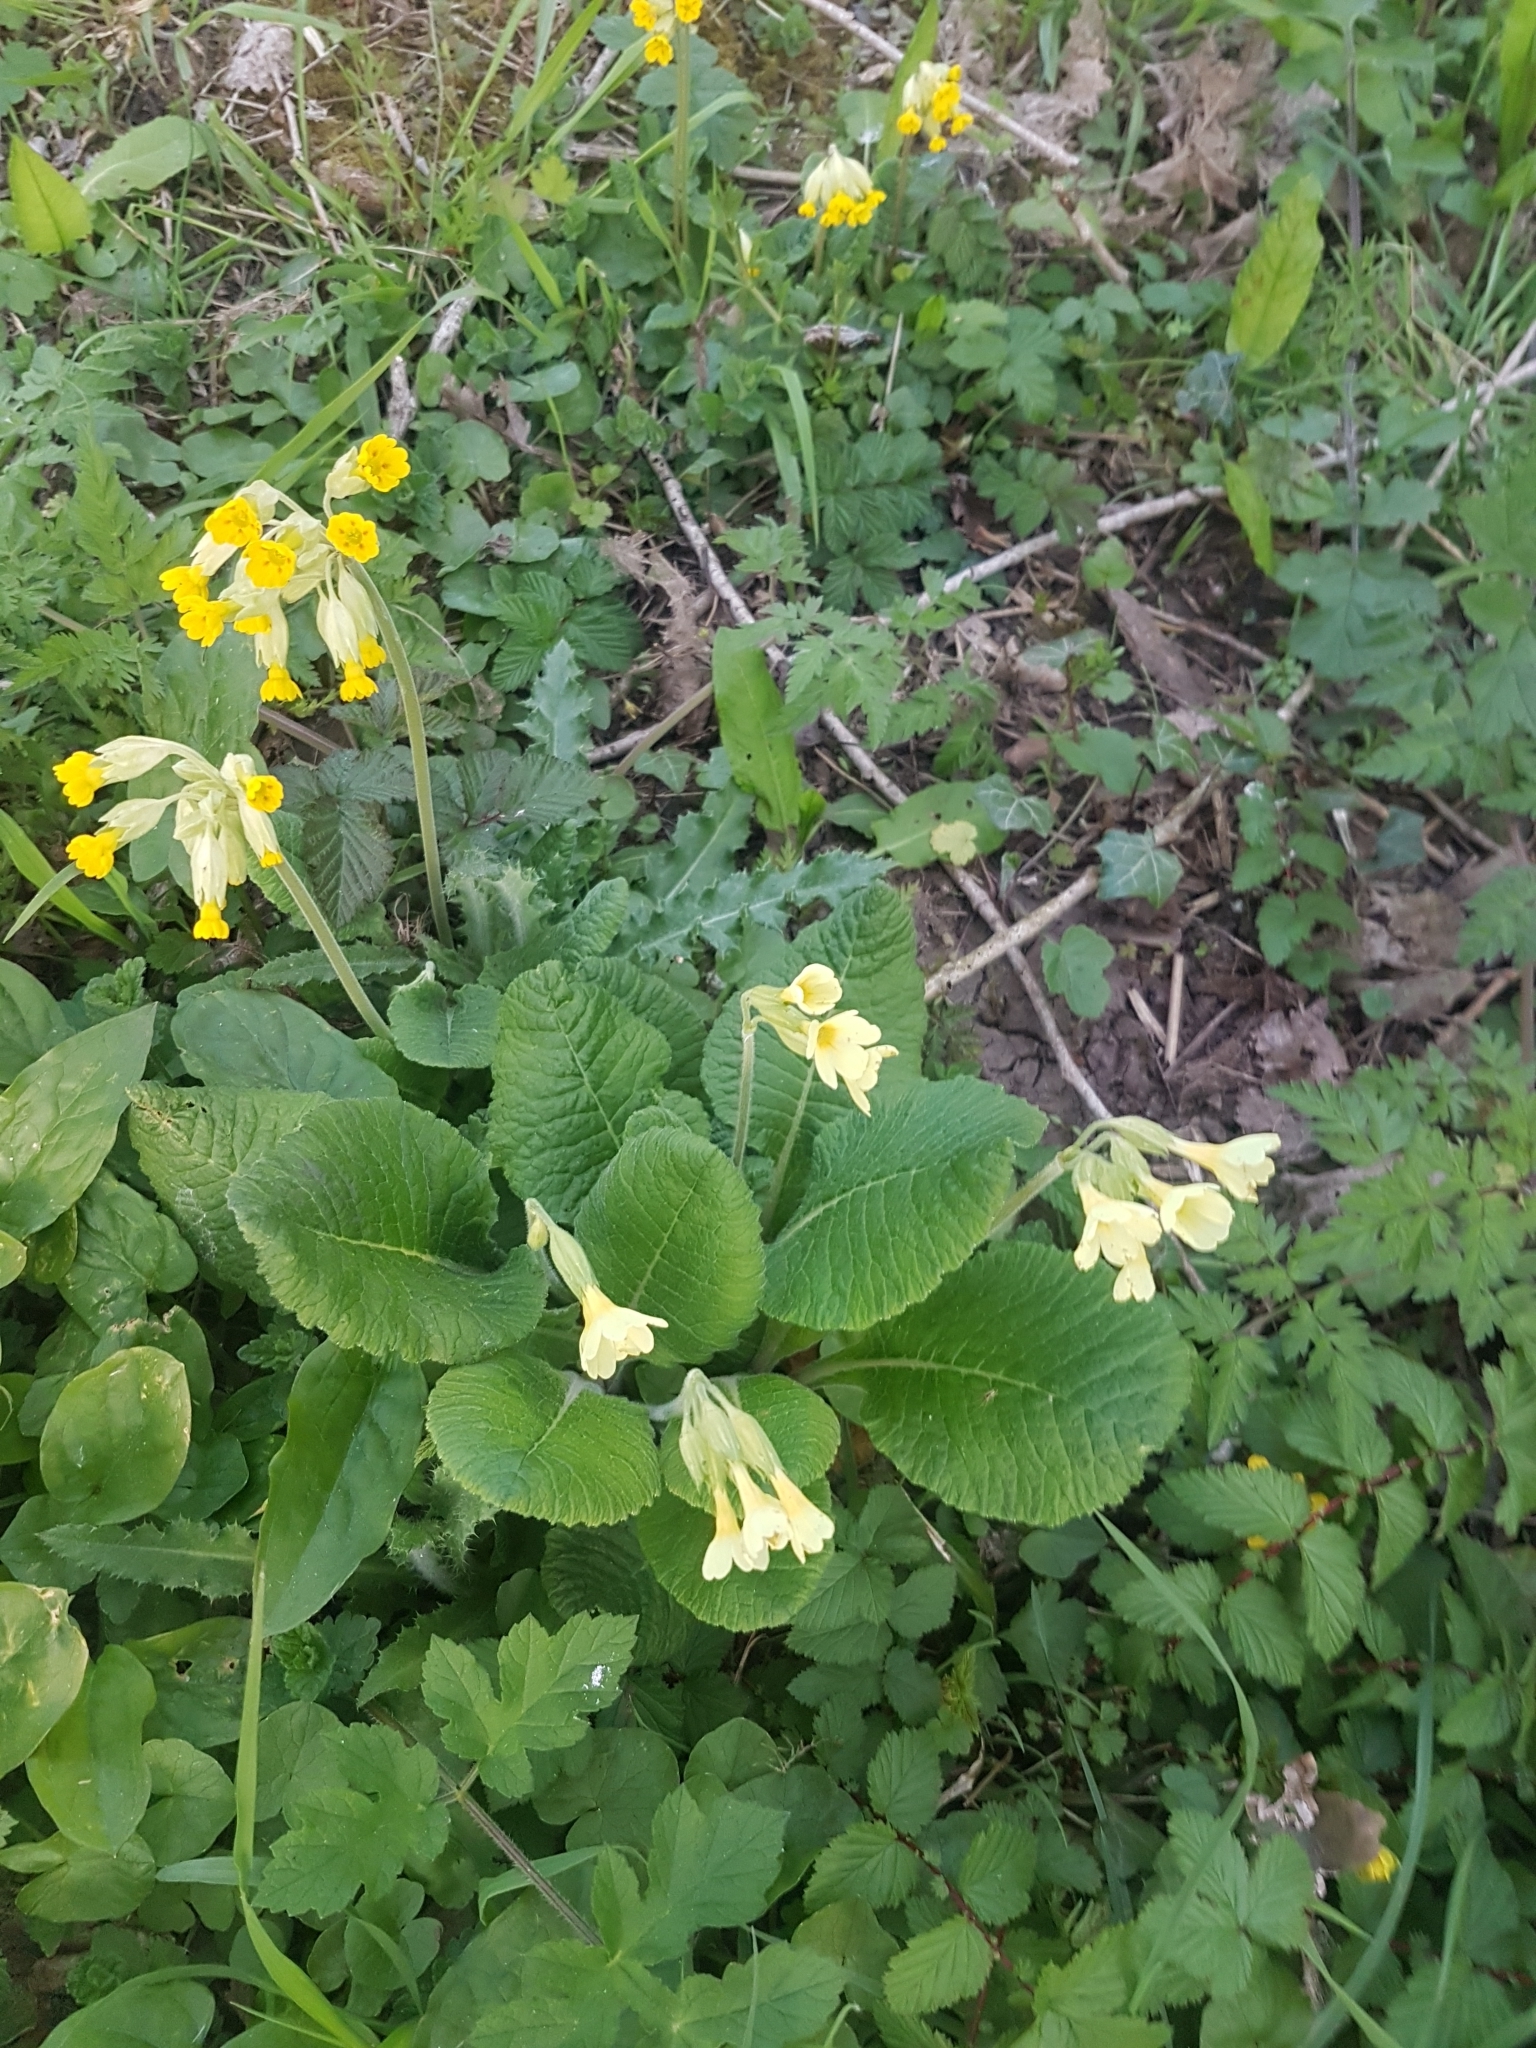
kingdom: Plantae
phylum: Tracheophyta
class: Magnoliopsida
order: Ericales
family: Primulaceae
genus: Primula
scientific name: Primula veris
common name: Cowslip
